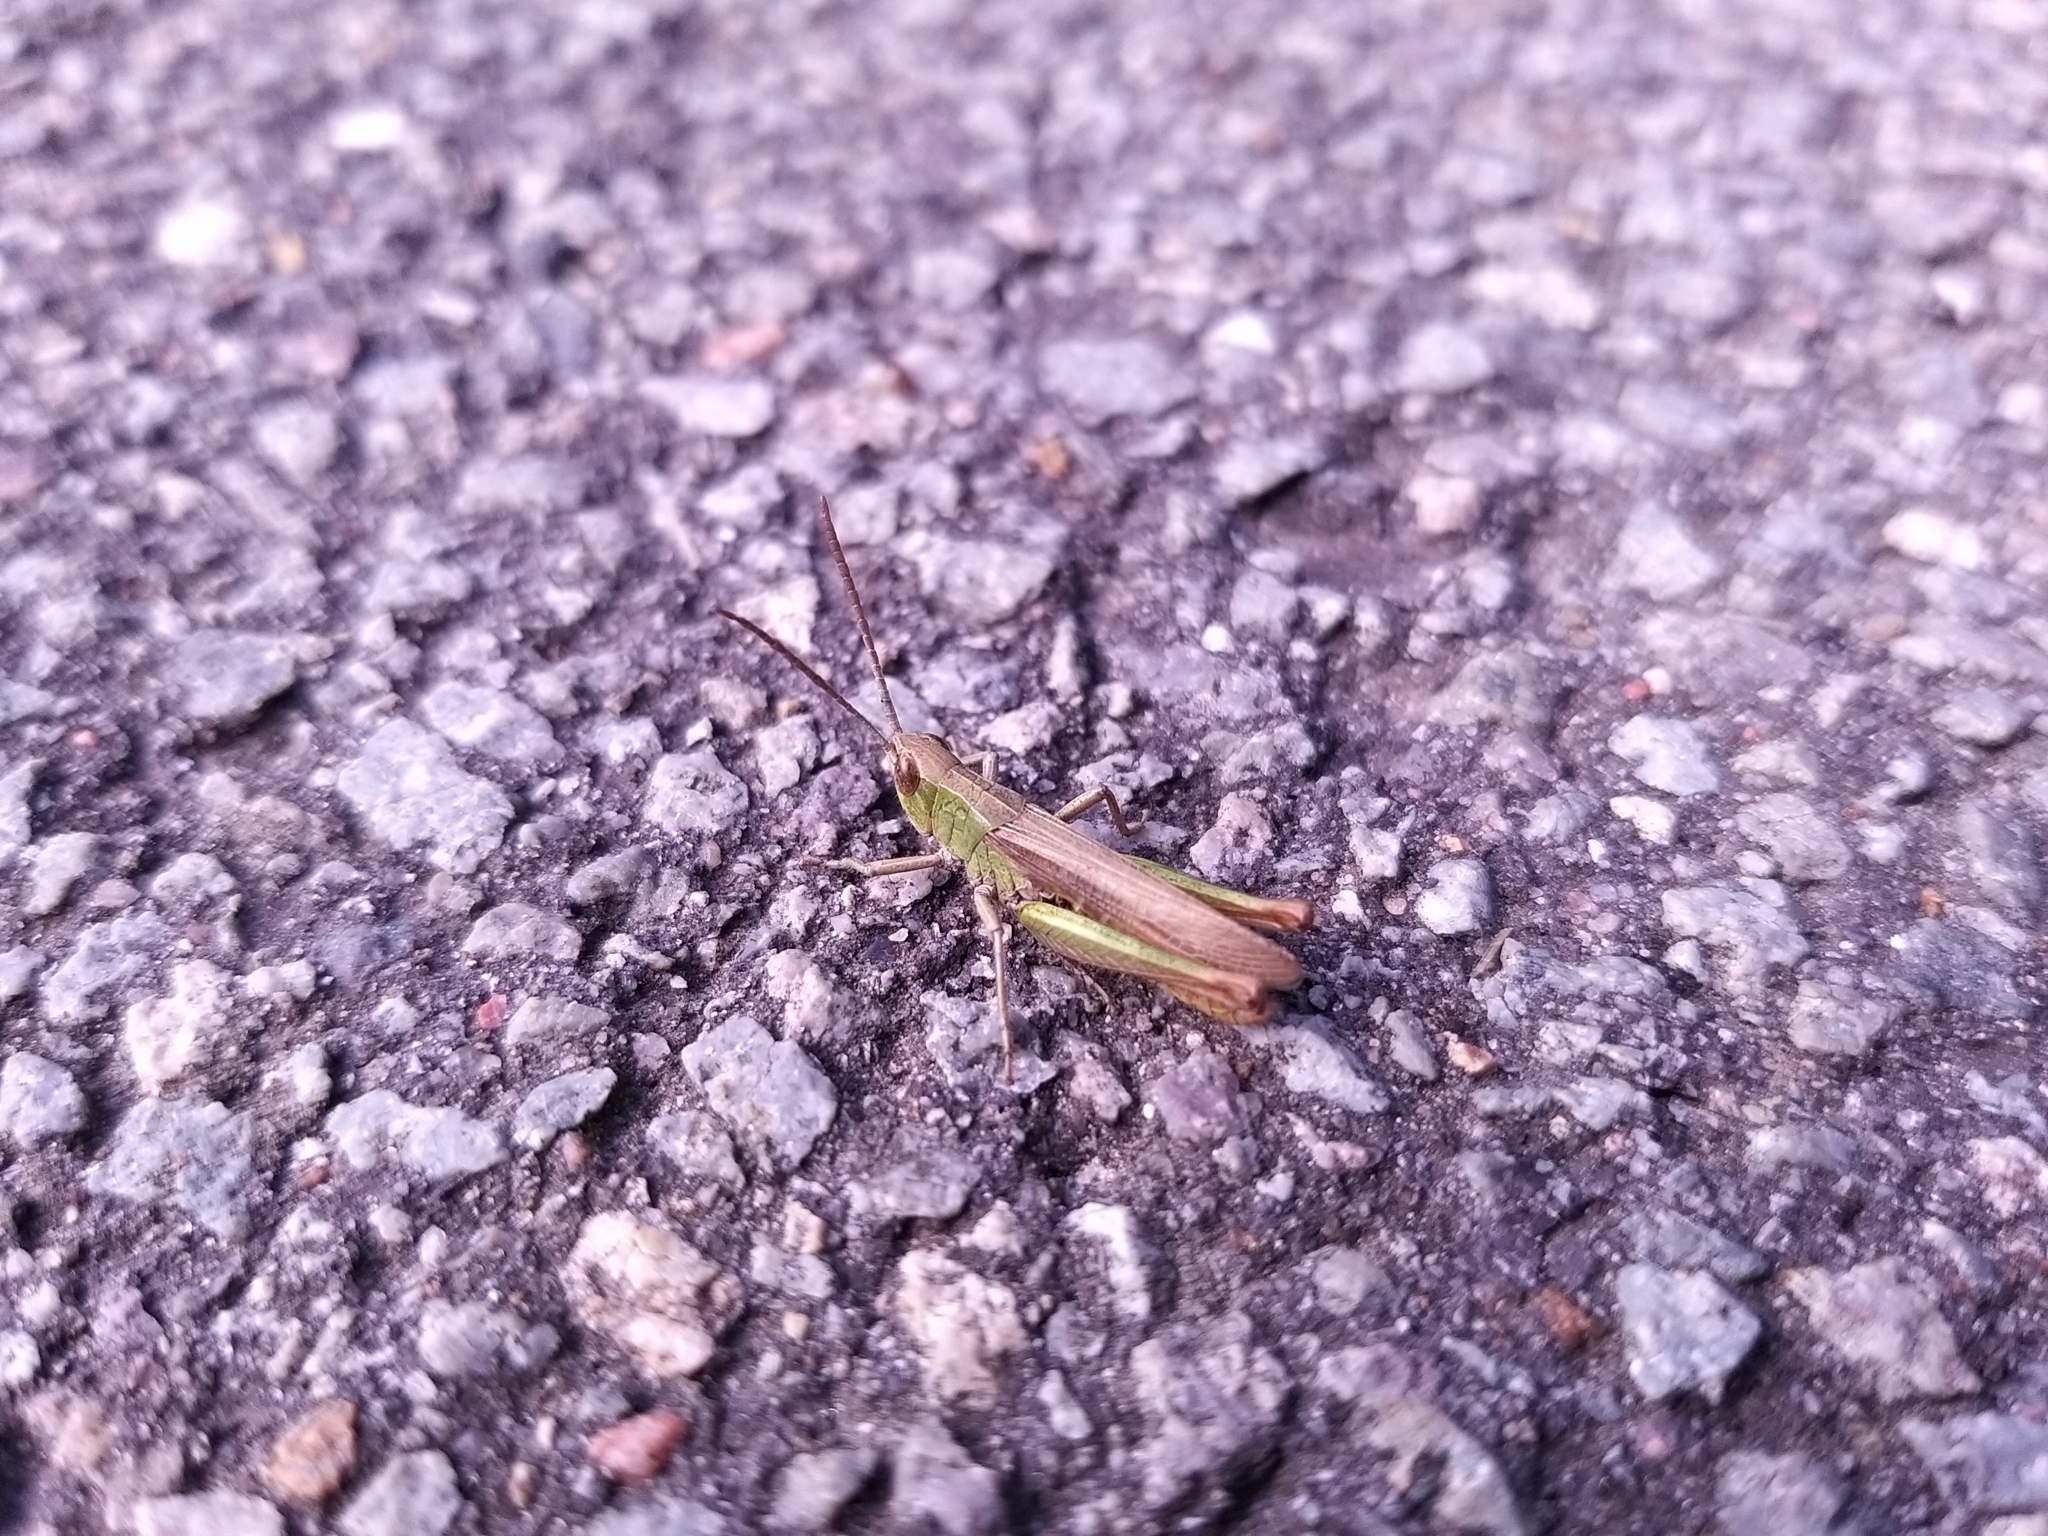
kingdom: Animalia
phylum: Arthropoda
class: Insecta
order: Orthoptera
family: Acrididae
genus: Chorthippus
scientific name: Chorthippus dorsatus
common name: Steppe grasshopper
